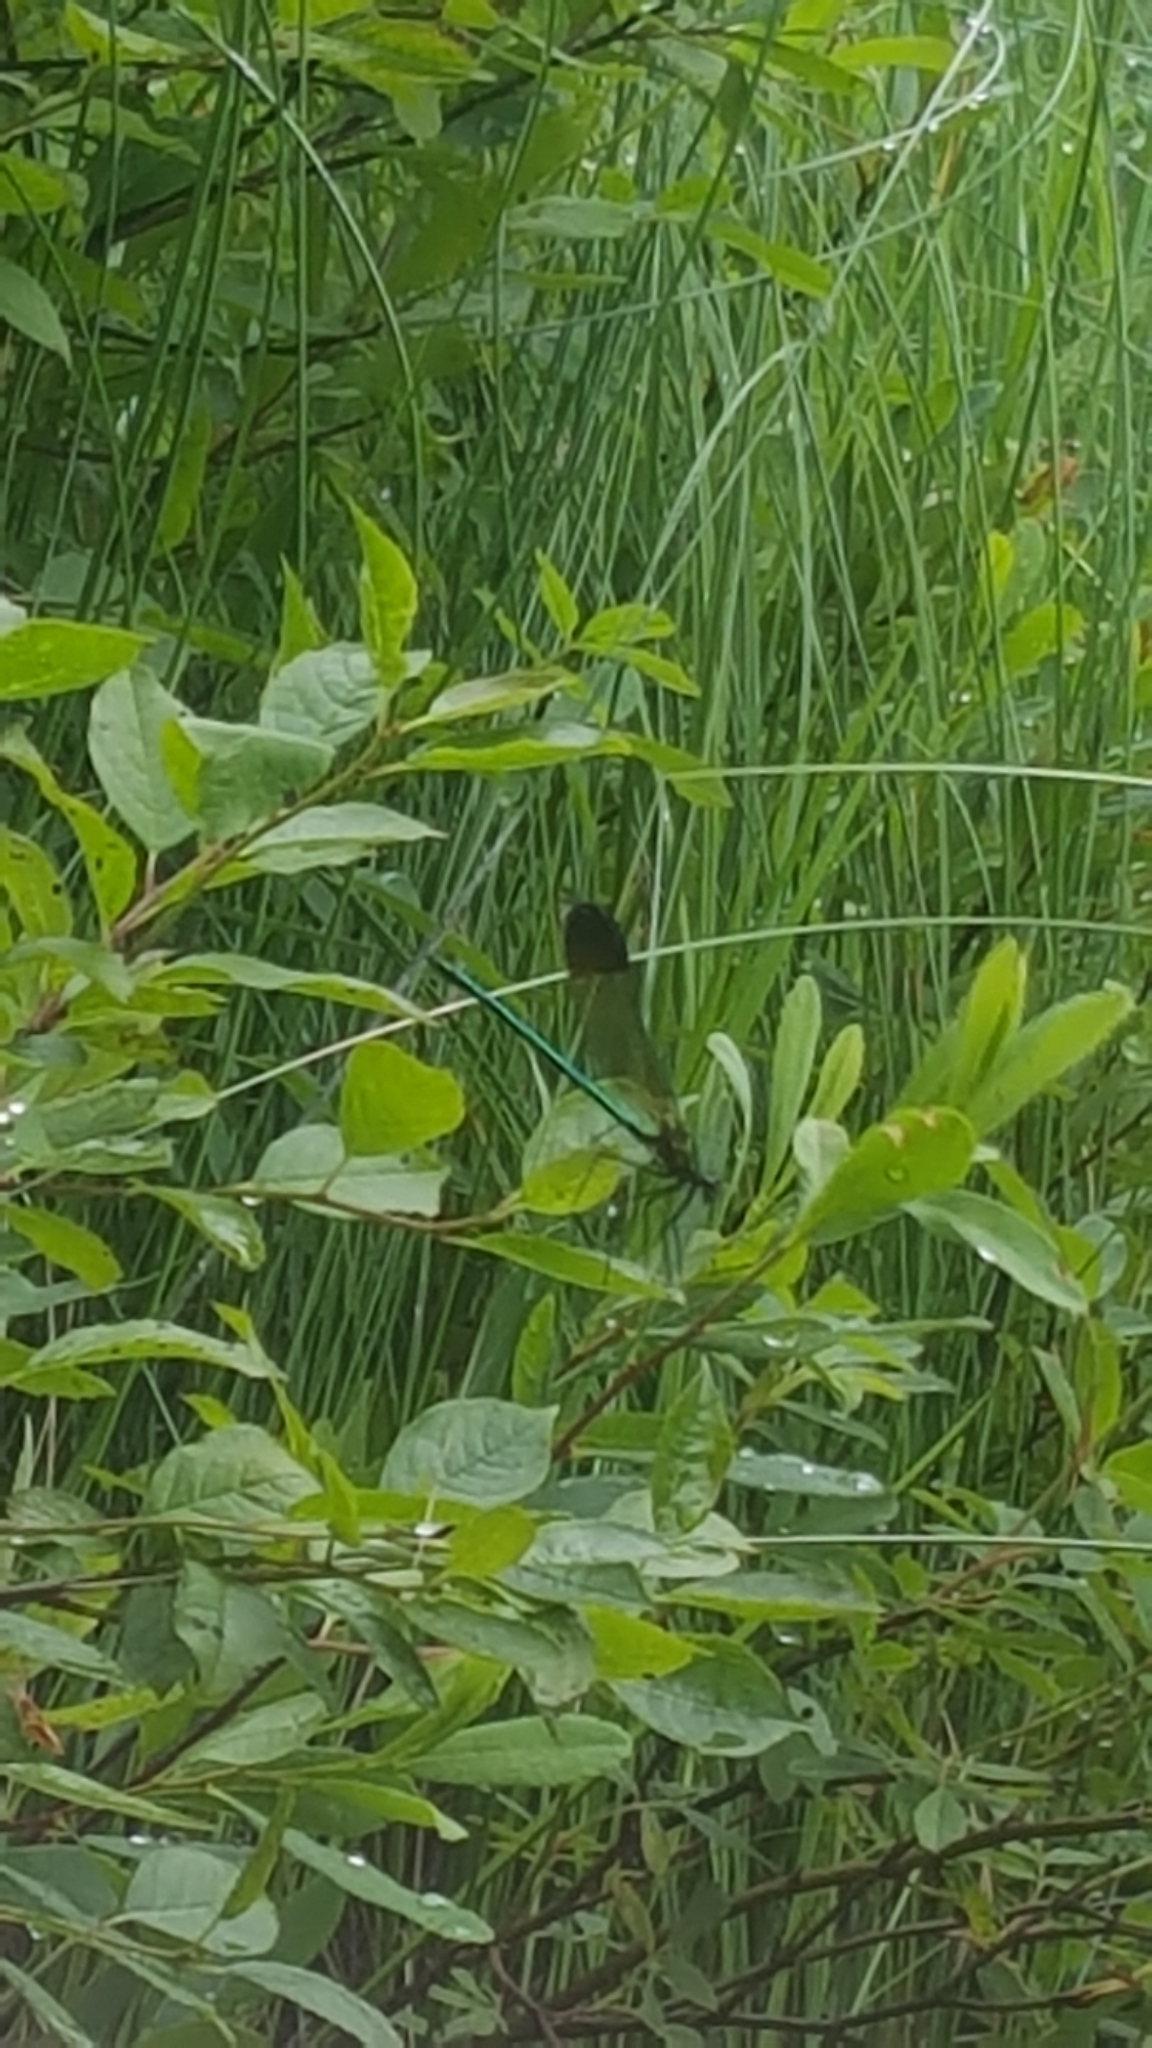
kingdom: Animalia
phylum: Arthropoda
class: Insecta
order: Odonata
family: Calopterygidae
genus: Calopteryx
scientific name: Calopteryx aequabilis
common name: River jewelwing
